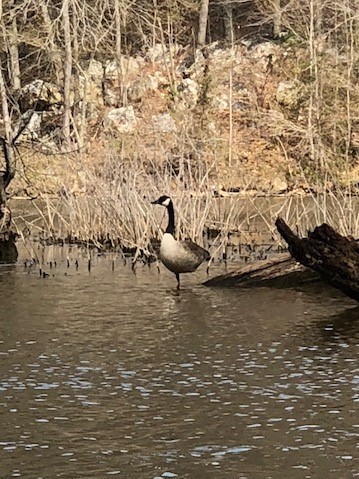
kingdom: Animalia
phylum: Chordata
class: Aves
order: Anseriformes
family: Anatidae
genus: Branta
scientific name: Branta canadensis
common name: Canada goose
